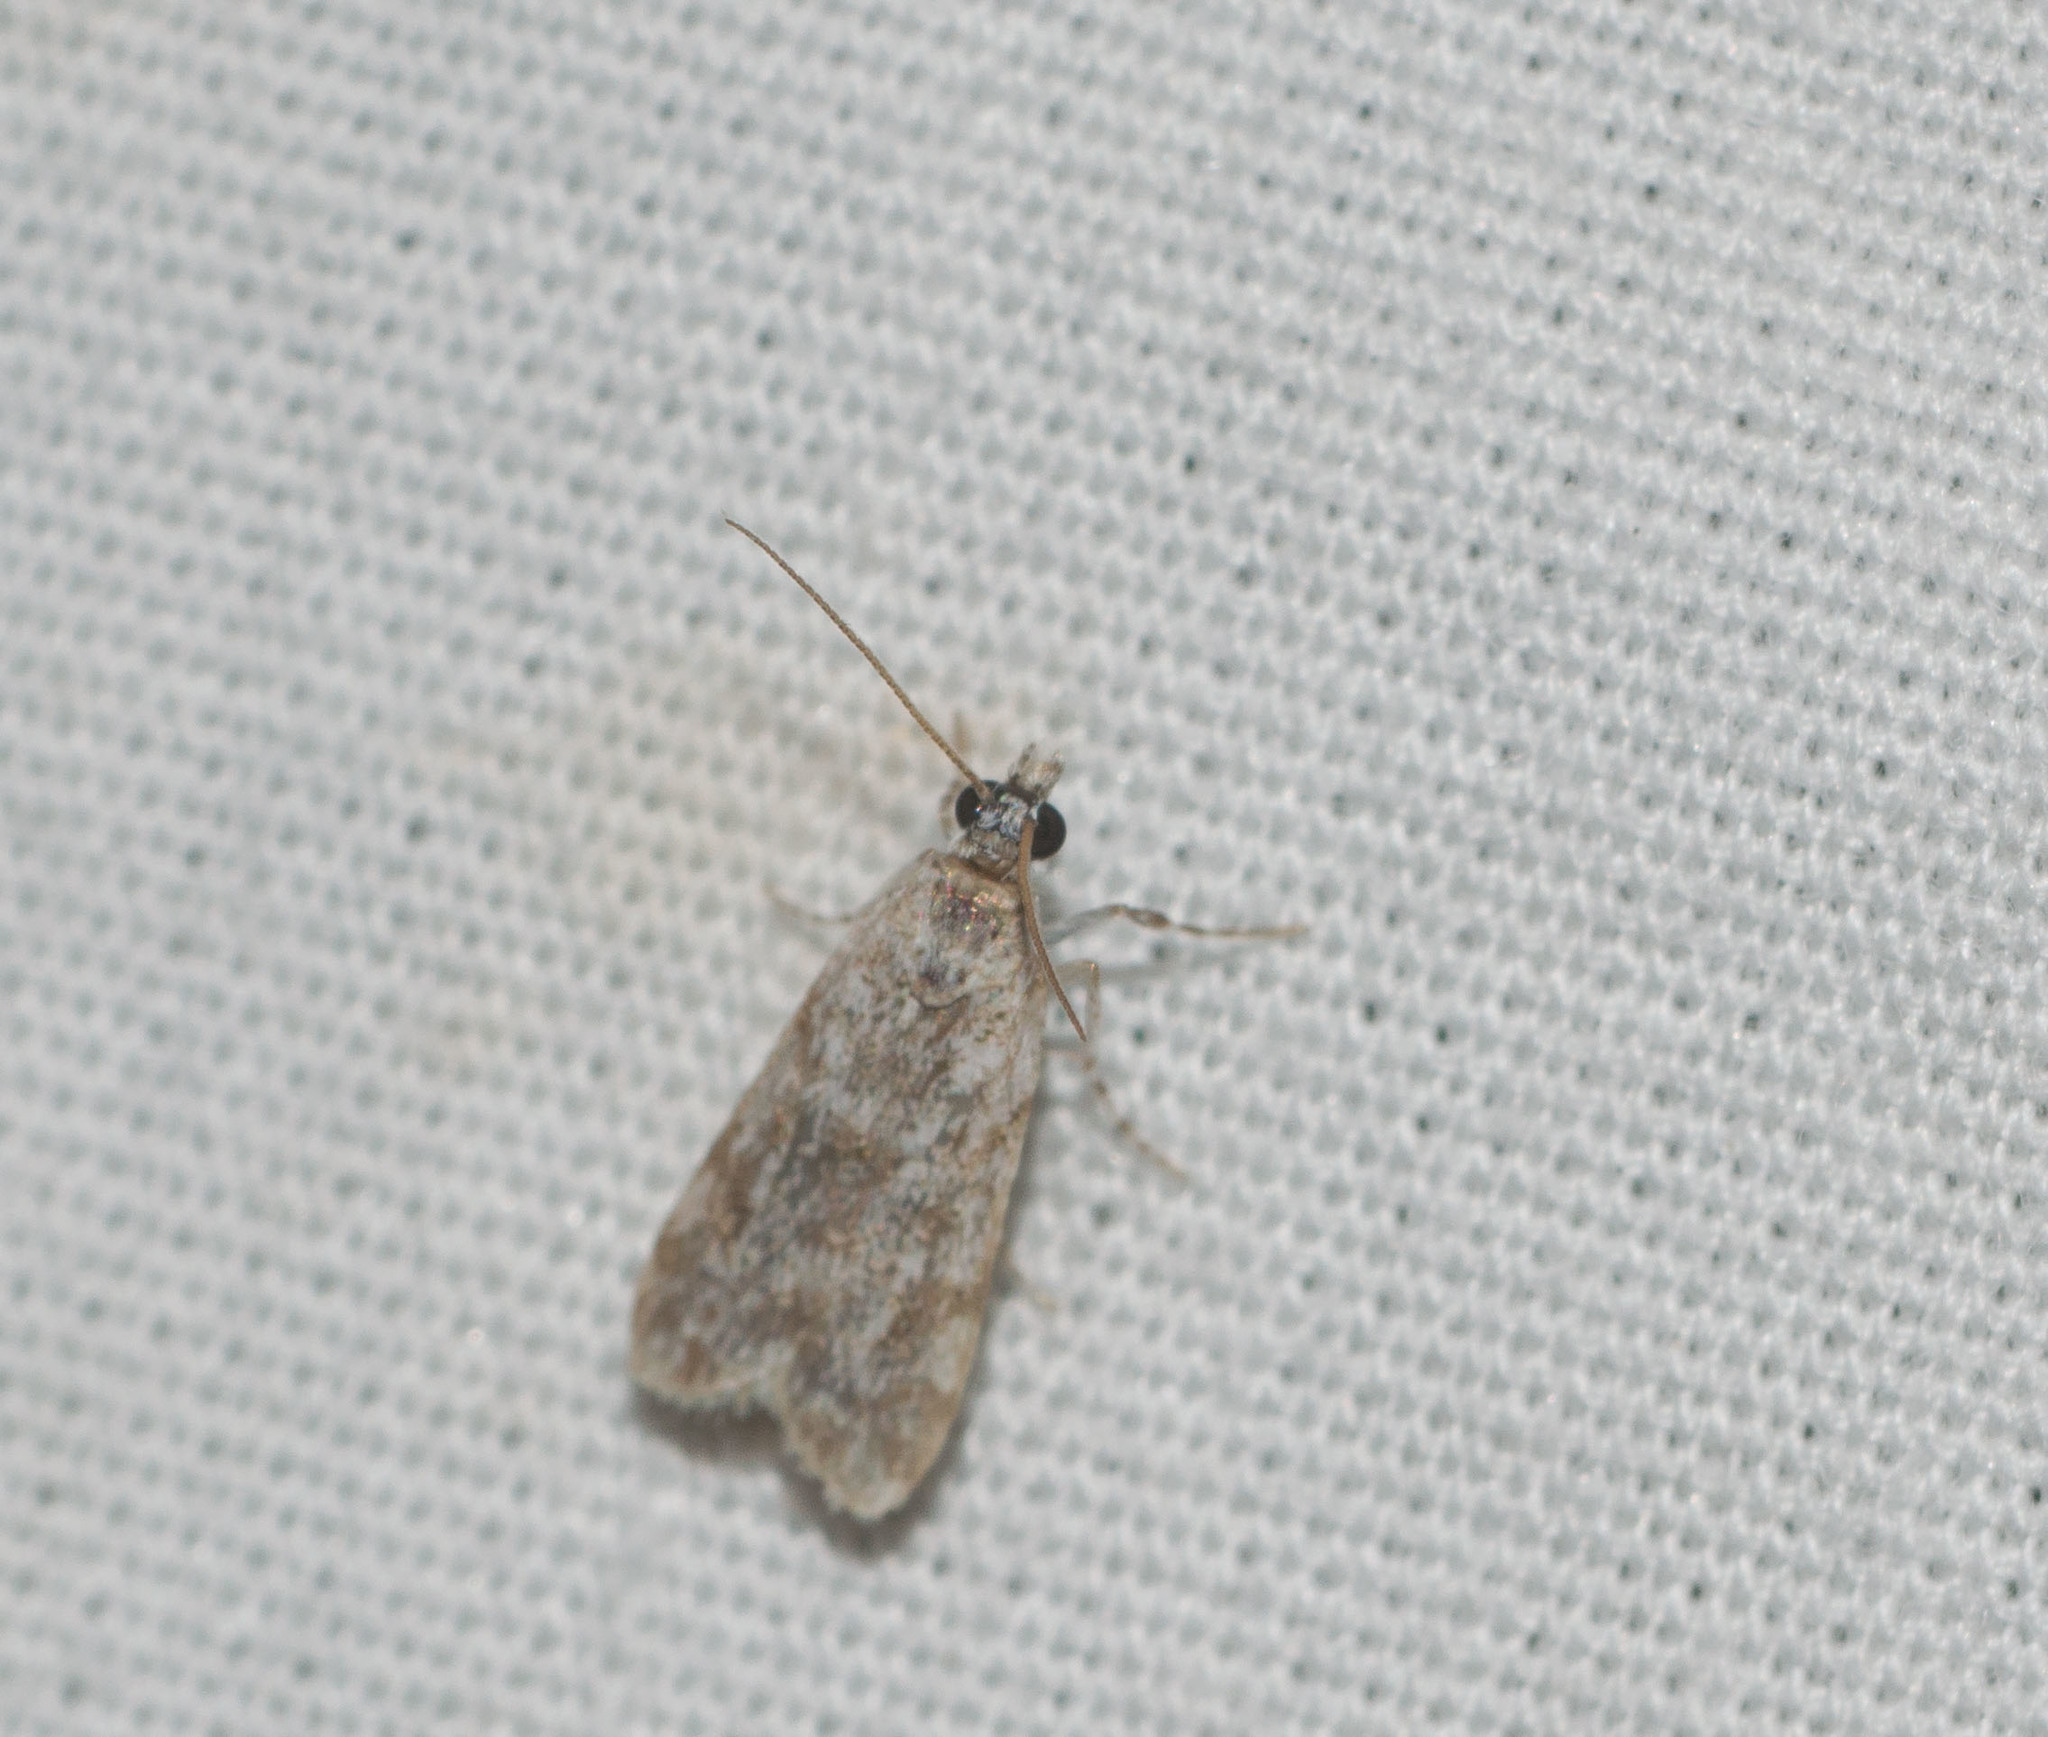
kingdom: Animalia
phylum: Arthropoda
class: Insecta
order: Lepidoptera
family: Crambidae
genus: Eudonia
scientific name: Eudonia geraea
